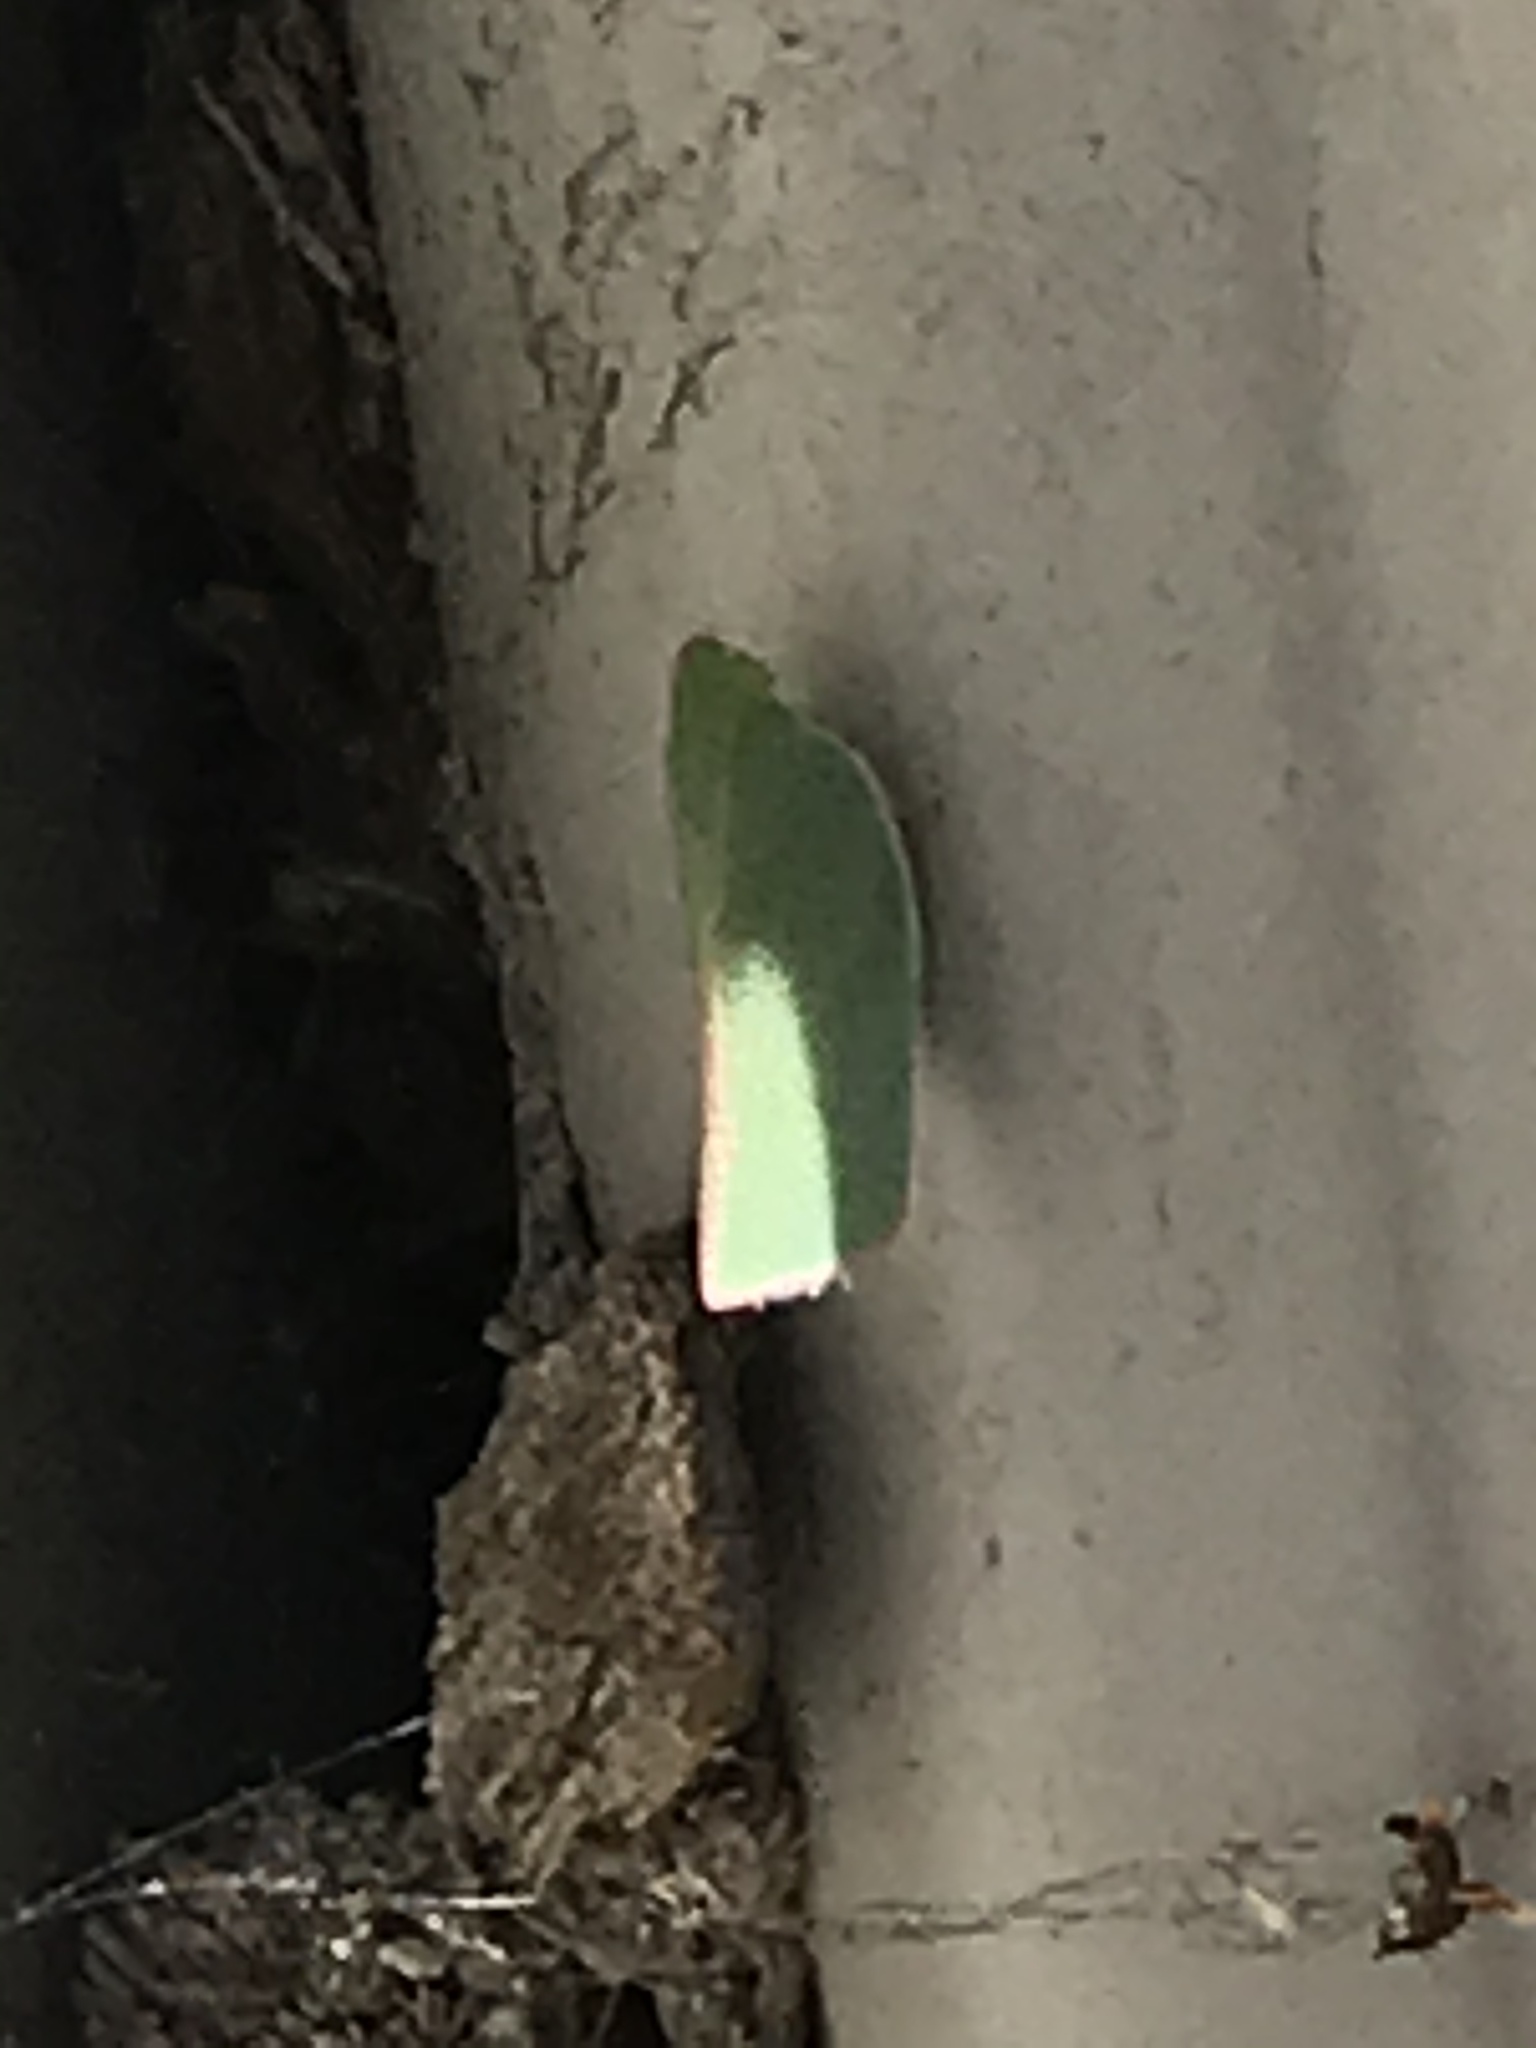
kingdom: Animalia
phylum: Arthropoda
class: Insecta
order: Hemiptera
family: Flatidae
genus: Siphanta
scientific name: Siphanta acuta
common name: Torpedo bug
